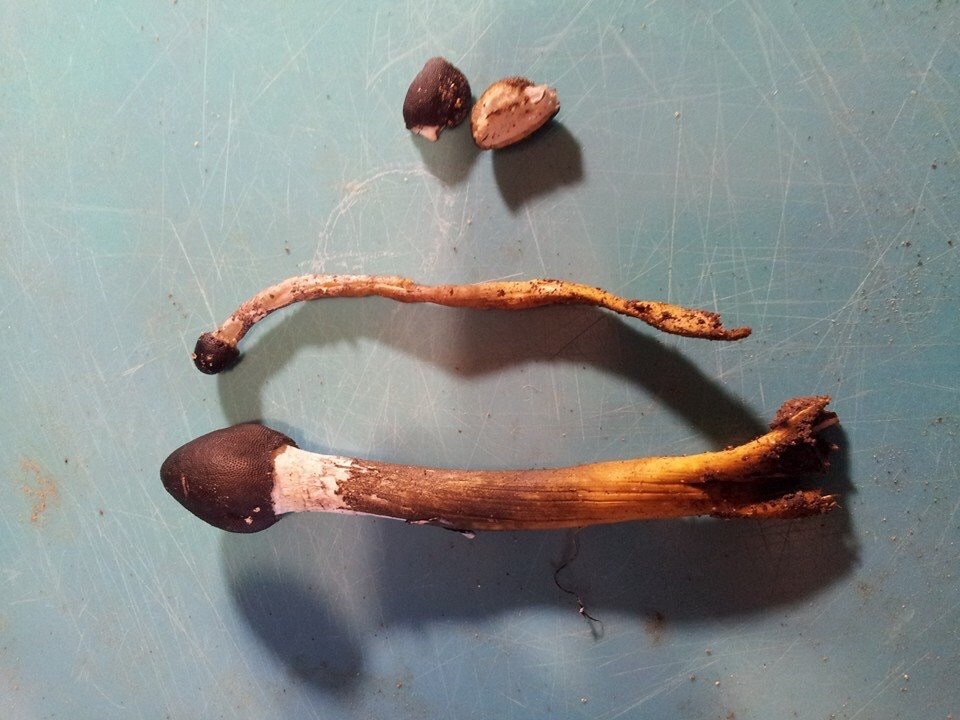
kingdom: Fungi
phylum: Ascomycota
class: Sordariomycetes
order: Hypocreales
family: Ophiocordycipitaceae
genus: Tolypocladium
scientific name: Tolypocladium longisegmentatum
